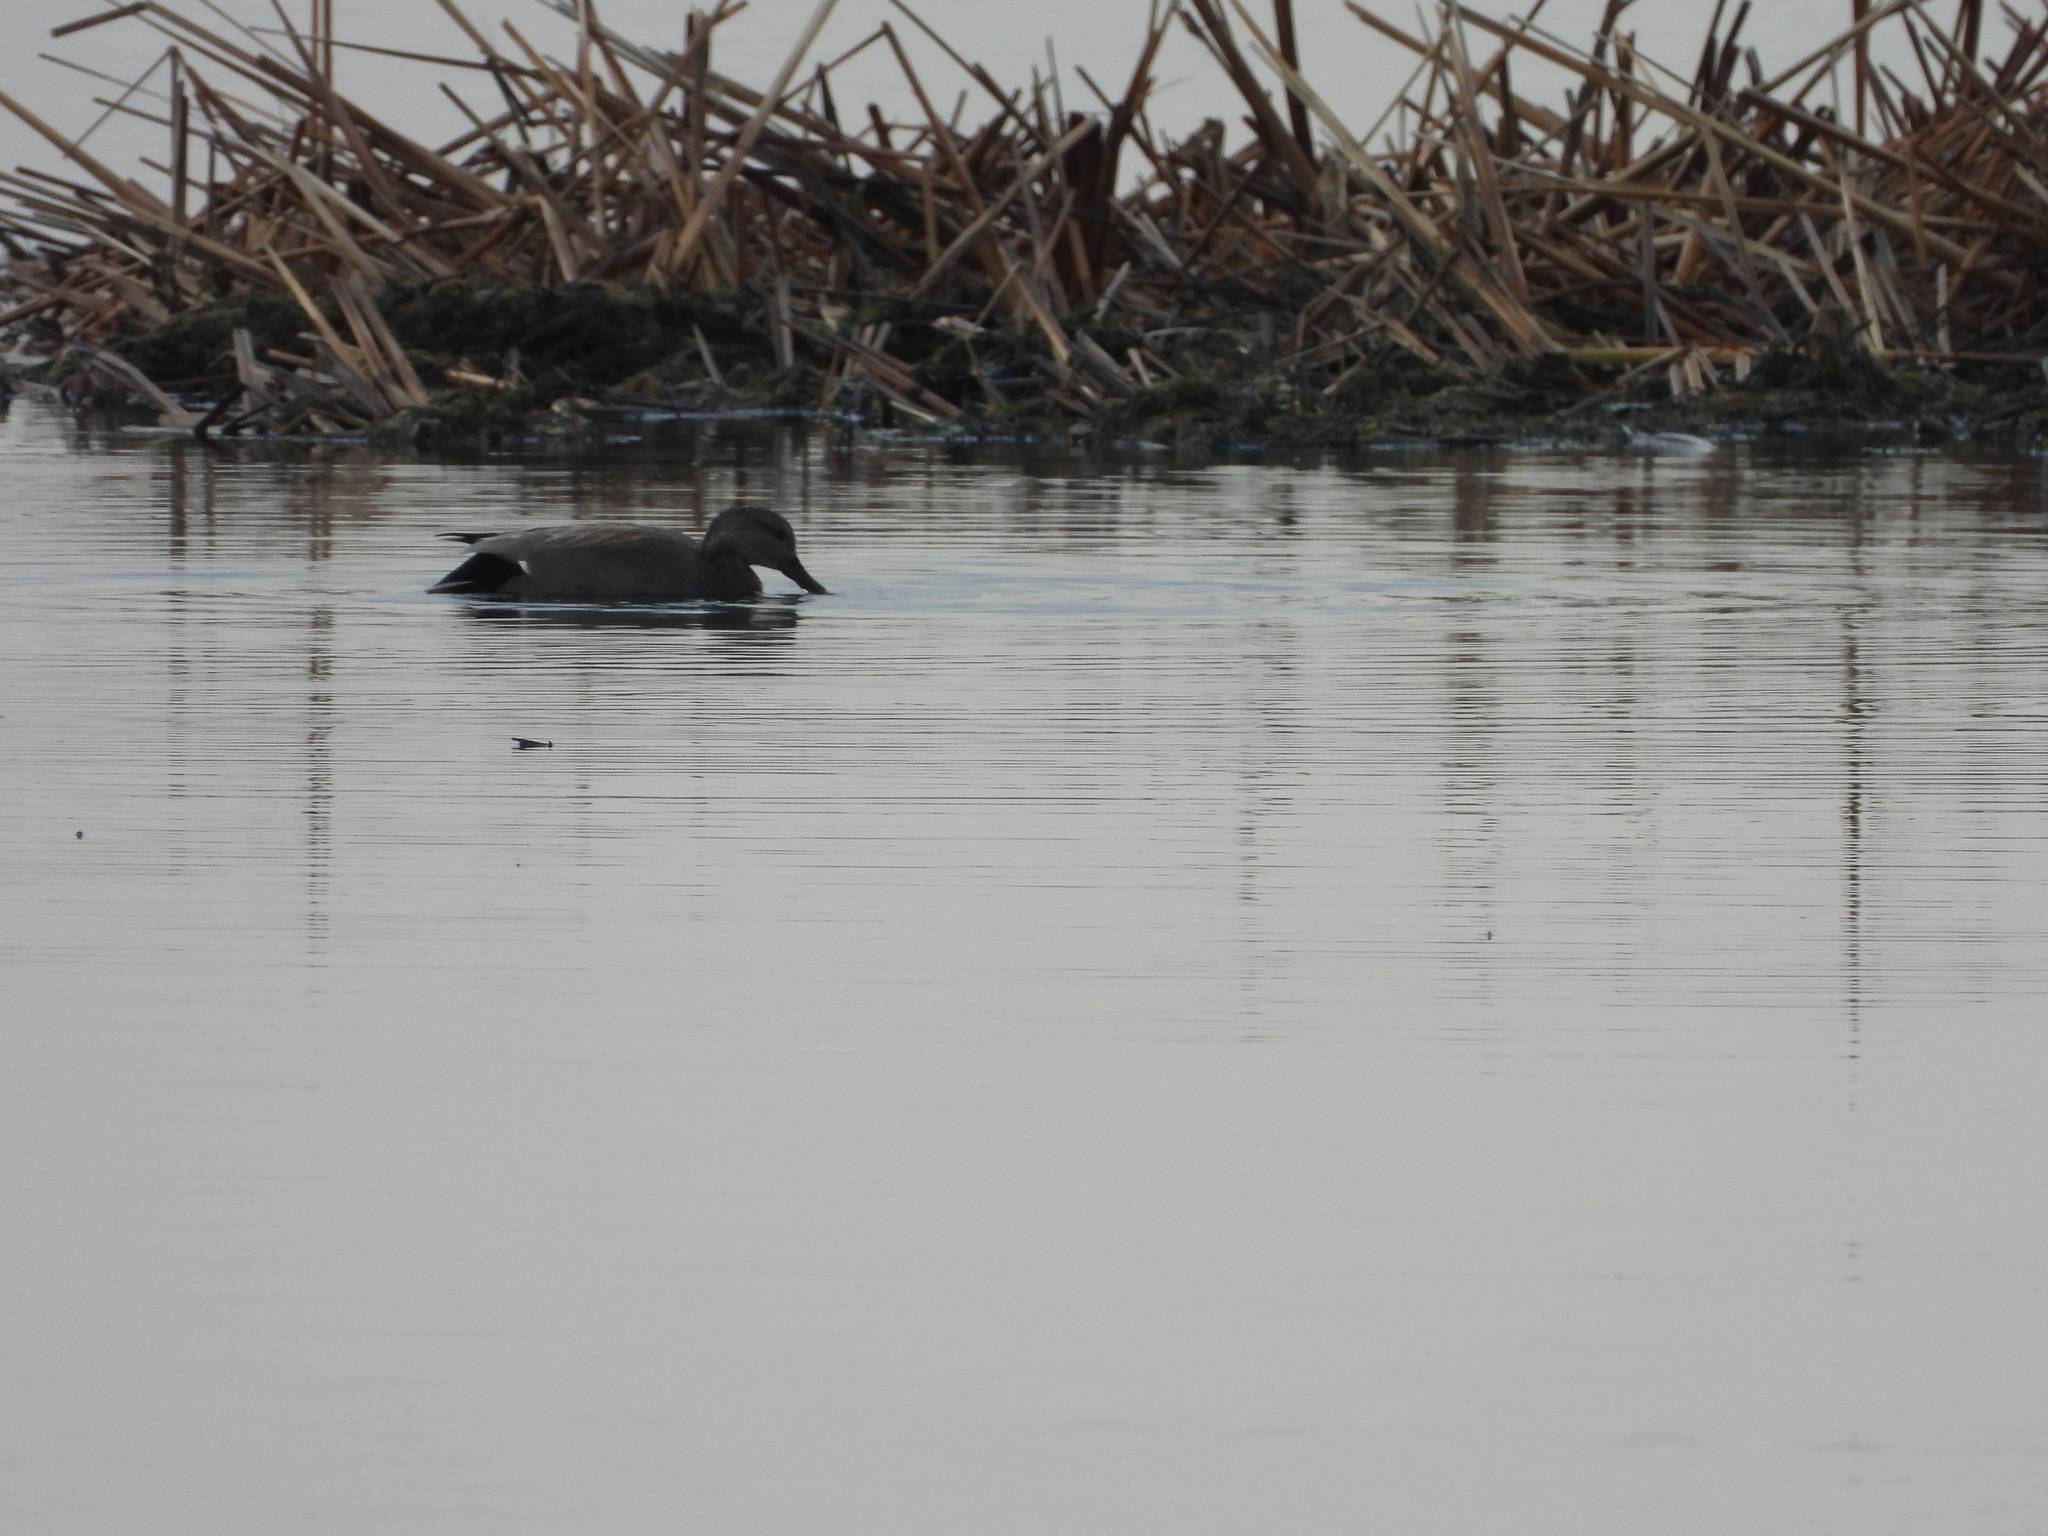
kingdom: Animalia
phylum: Chordata
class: Aves
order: Anseriformes
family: Anatidae
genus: Mareca
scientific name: Mareca strepera
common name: Gadwall
